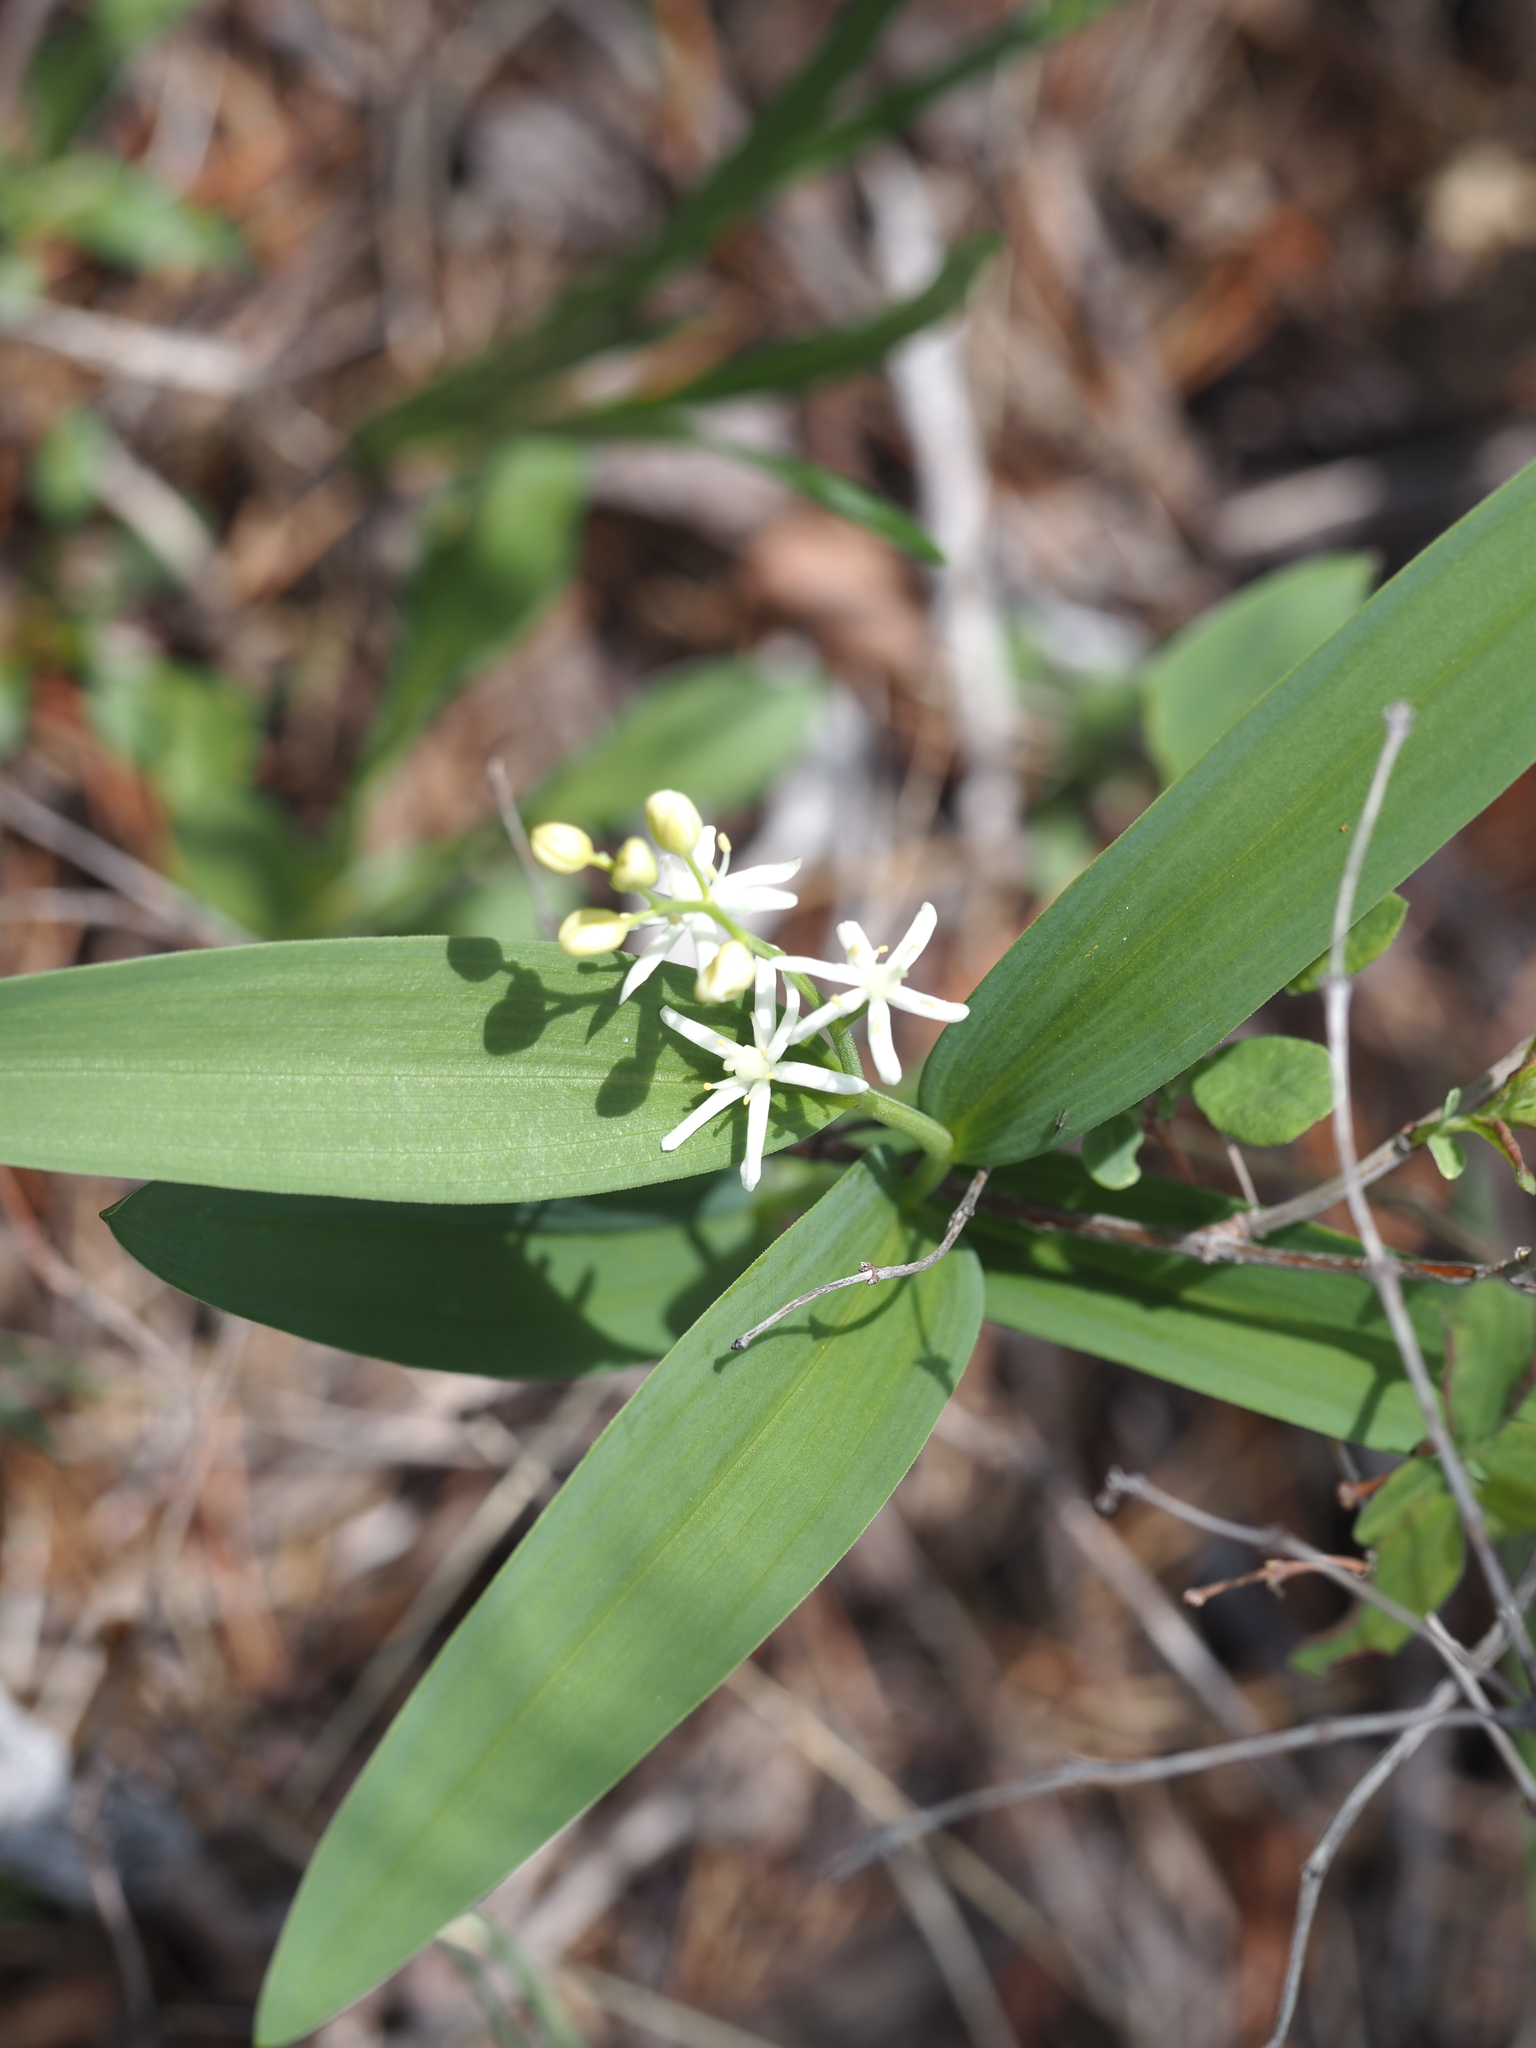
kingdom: Plantae
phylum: Tracheophyta
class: Liliopsida
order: Asparagales
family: Asparagaceae
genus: Maianthemum
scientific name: Maianthemum stellatum
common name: Little false solomon's seal
